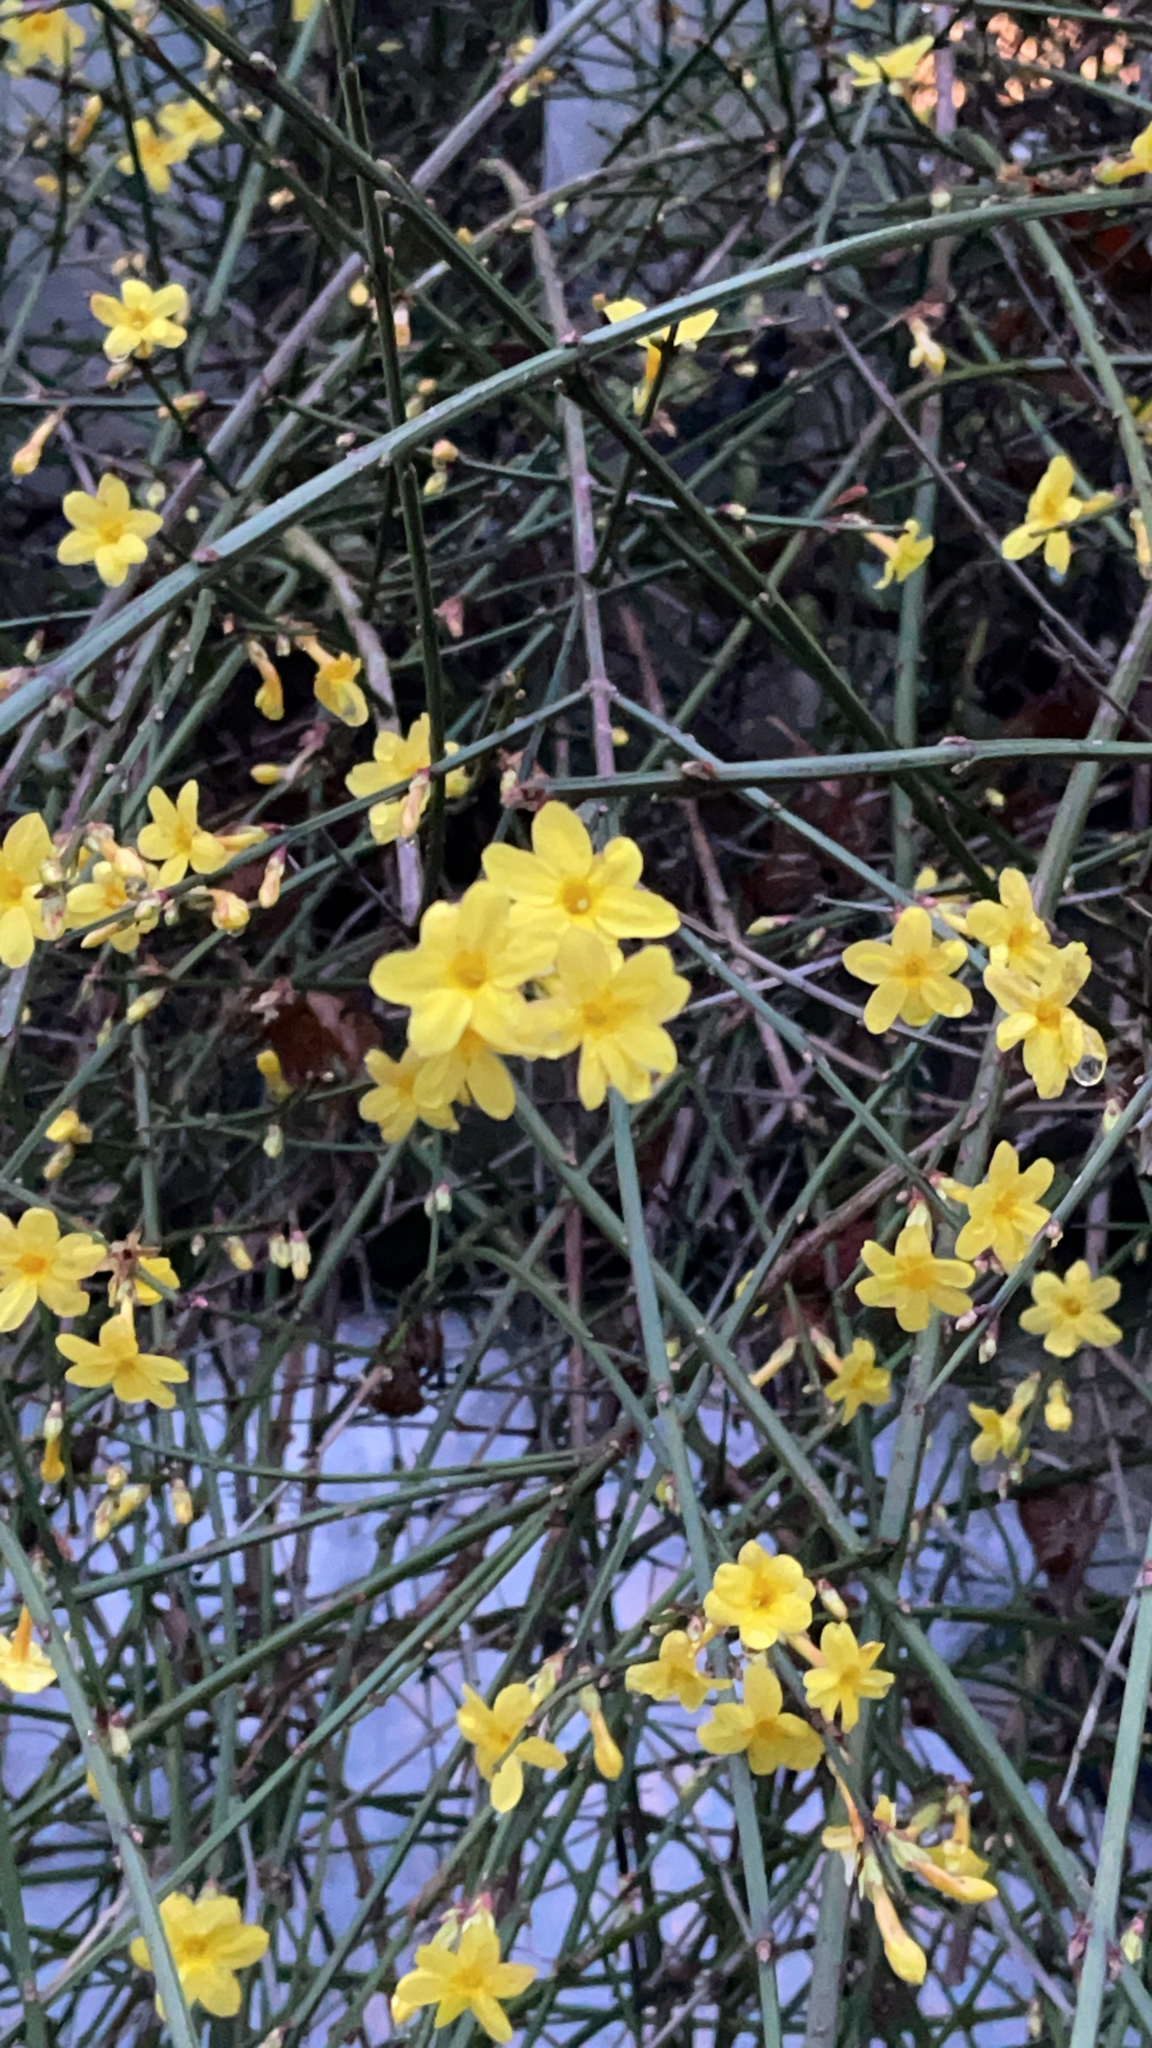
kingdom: Plantae
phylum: Tracheophyta
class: Magnoliopsida
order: Lamiales
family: Oleaceae
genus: Jasminum
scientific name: Jasminum nudiflorum
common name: Winter jasmine
